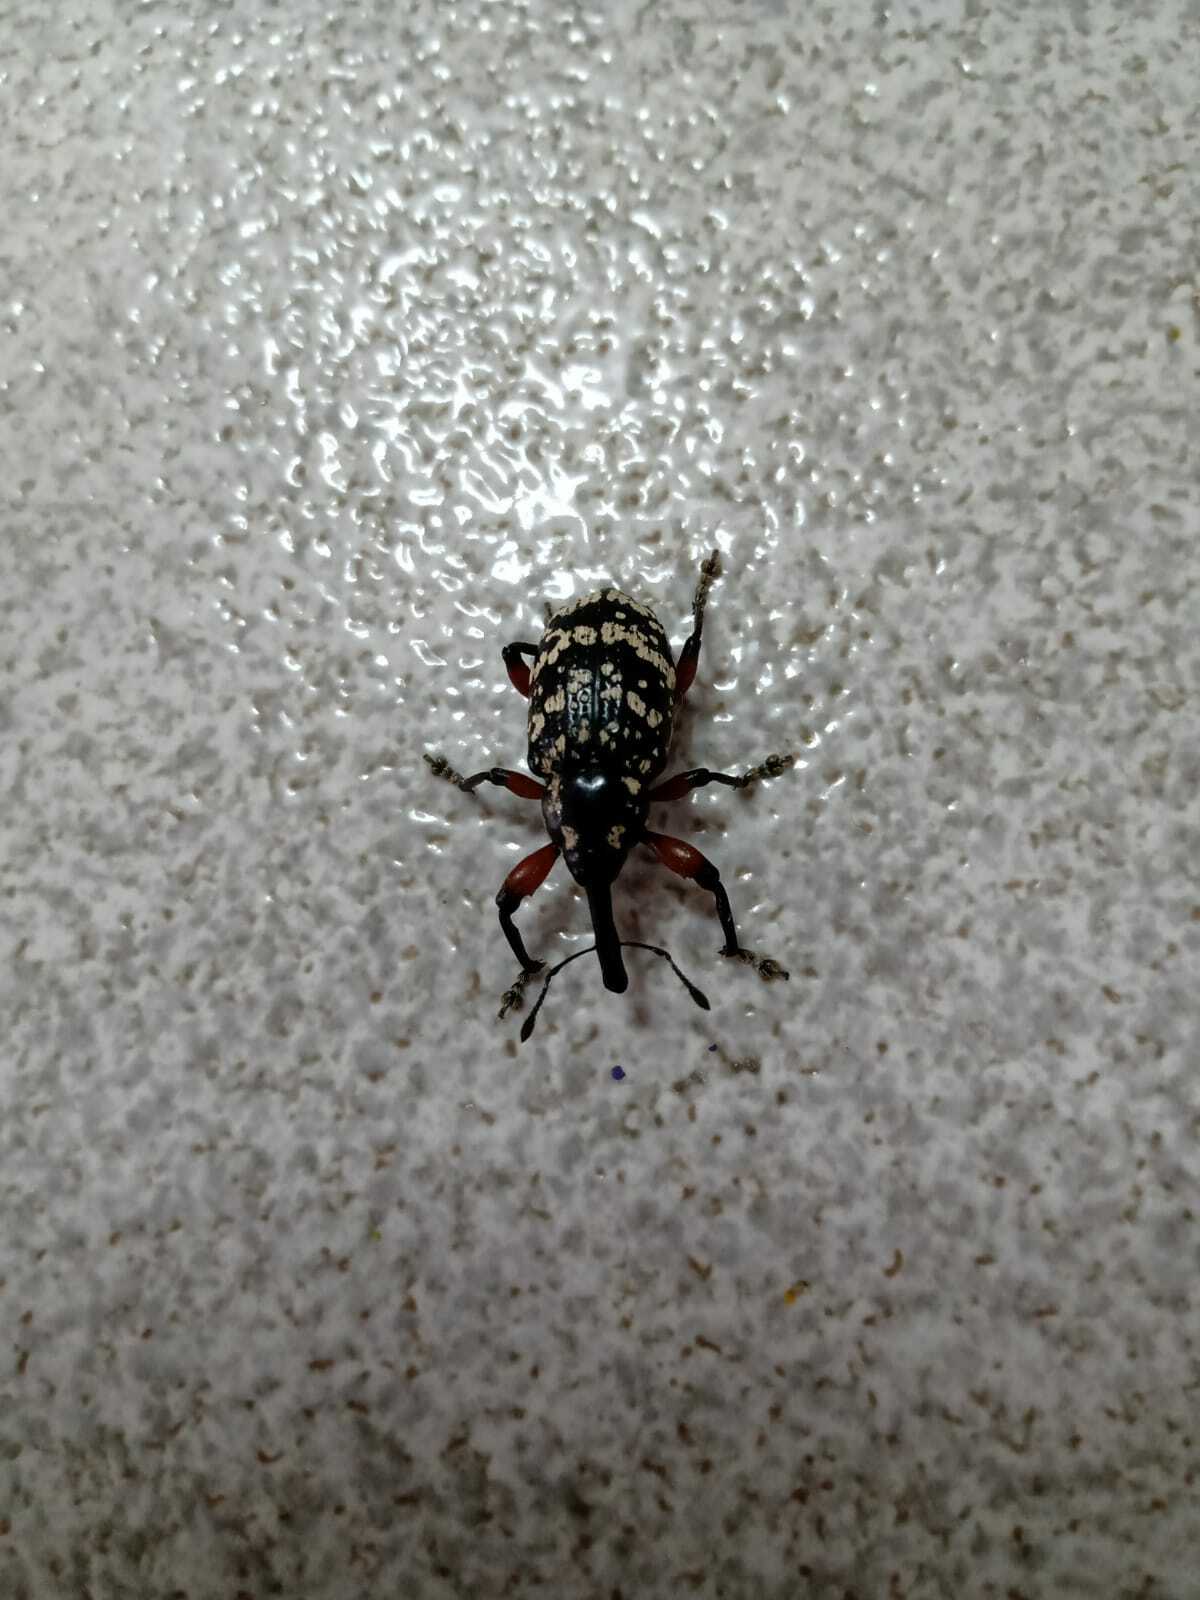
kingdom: Animalia
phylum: Arthropoda
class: Insecta
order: Coleoptera
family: Curculionidae
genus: Heilipodus
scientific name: Heilipodus erythropus
